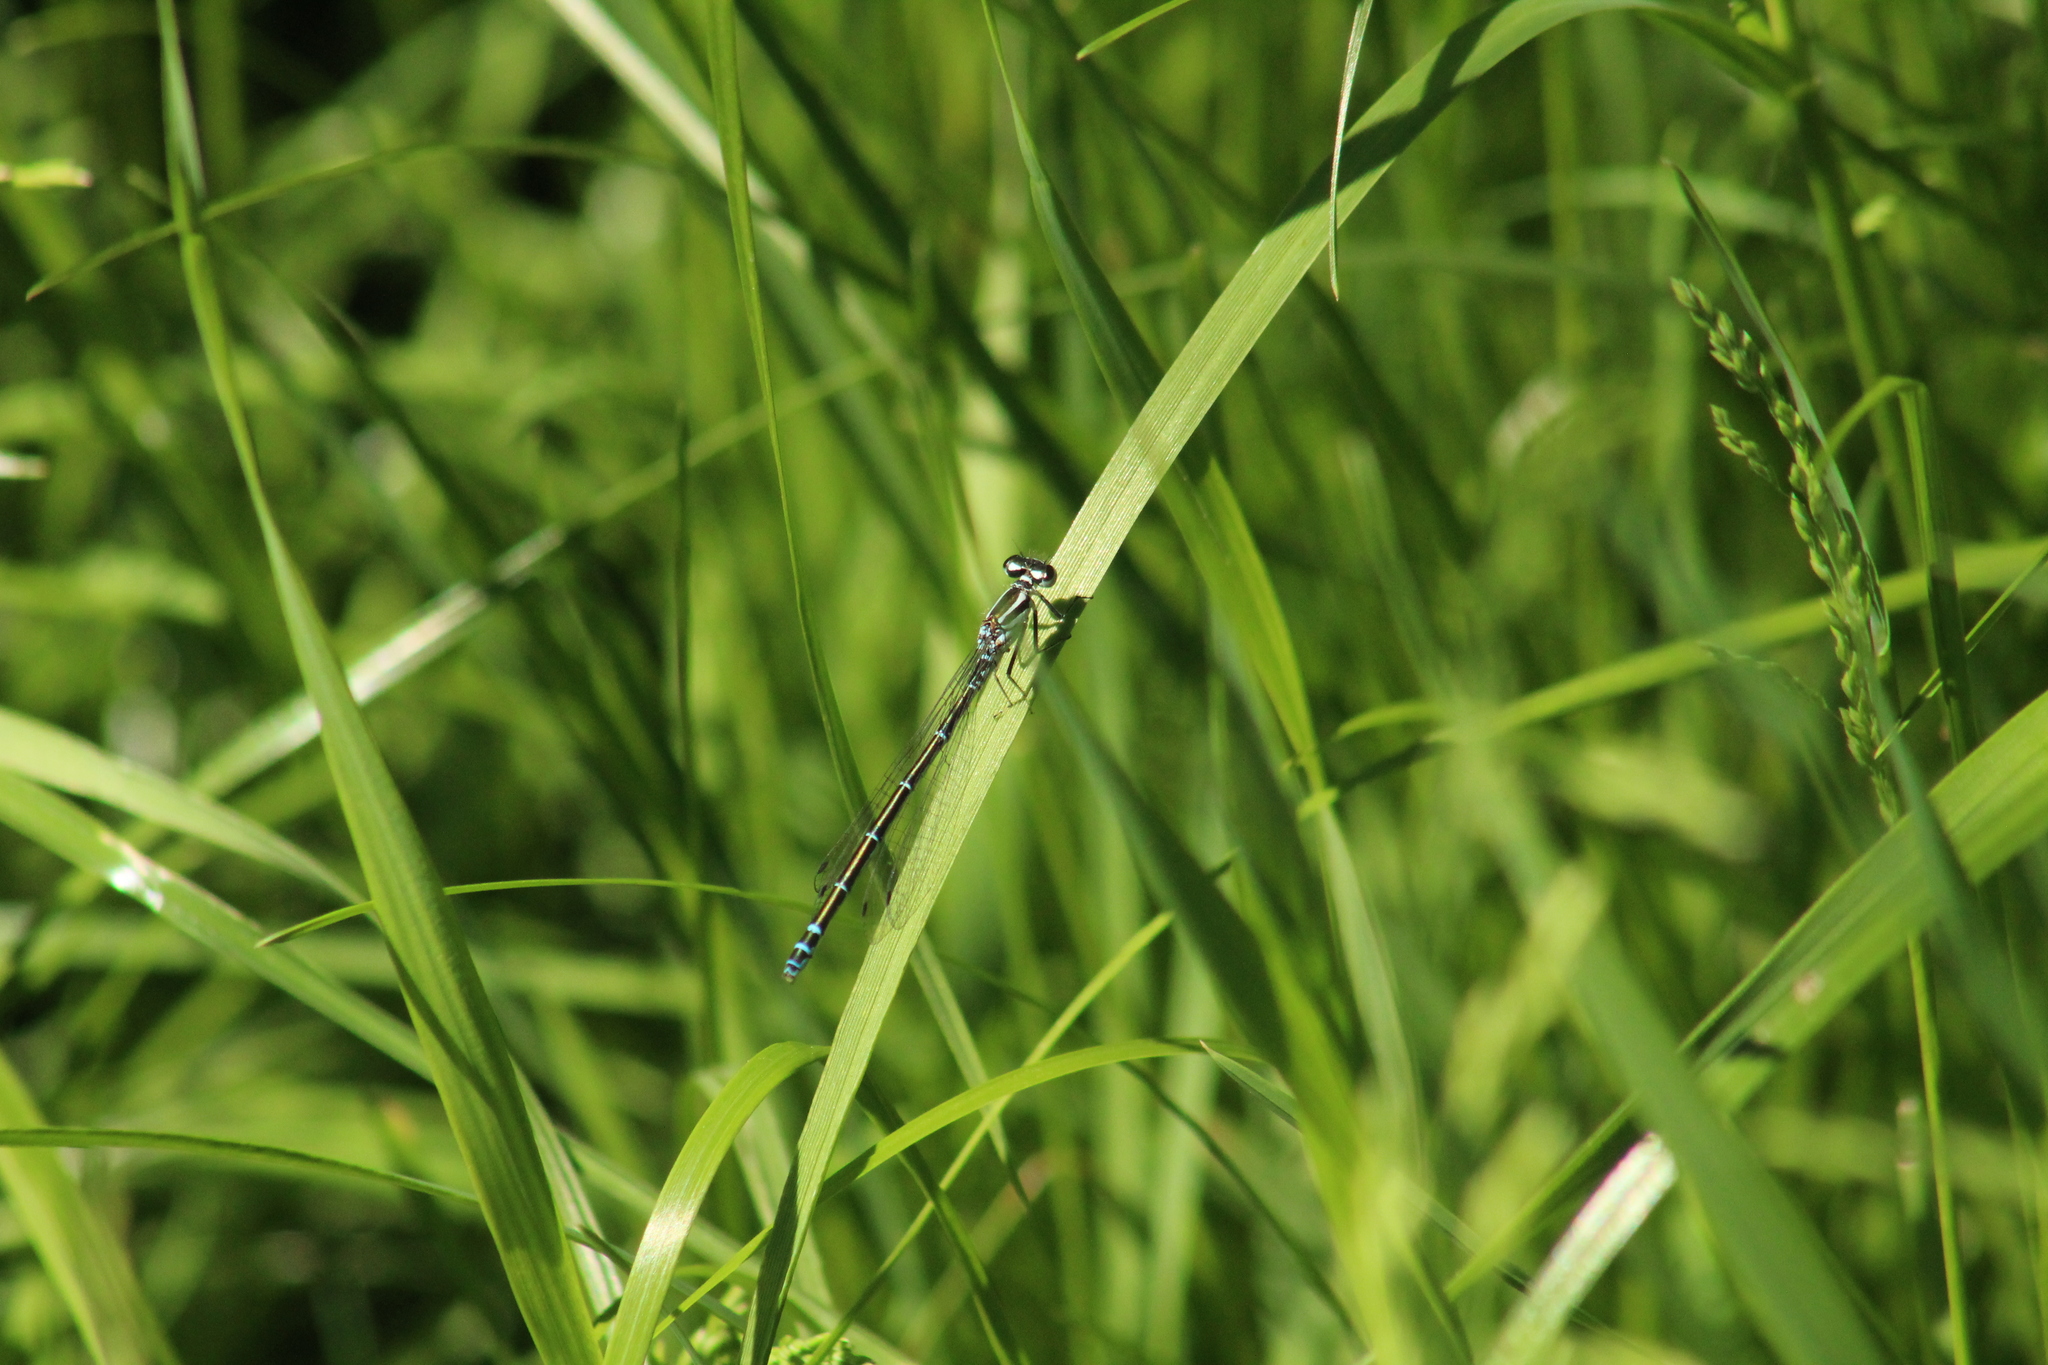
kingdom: Animalia
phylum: Arthropoda
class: Insecta
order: Odonata
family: Coenagrionidae
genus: Coenagrion
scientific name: Coenagrion puella
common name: Azure damselfly
